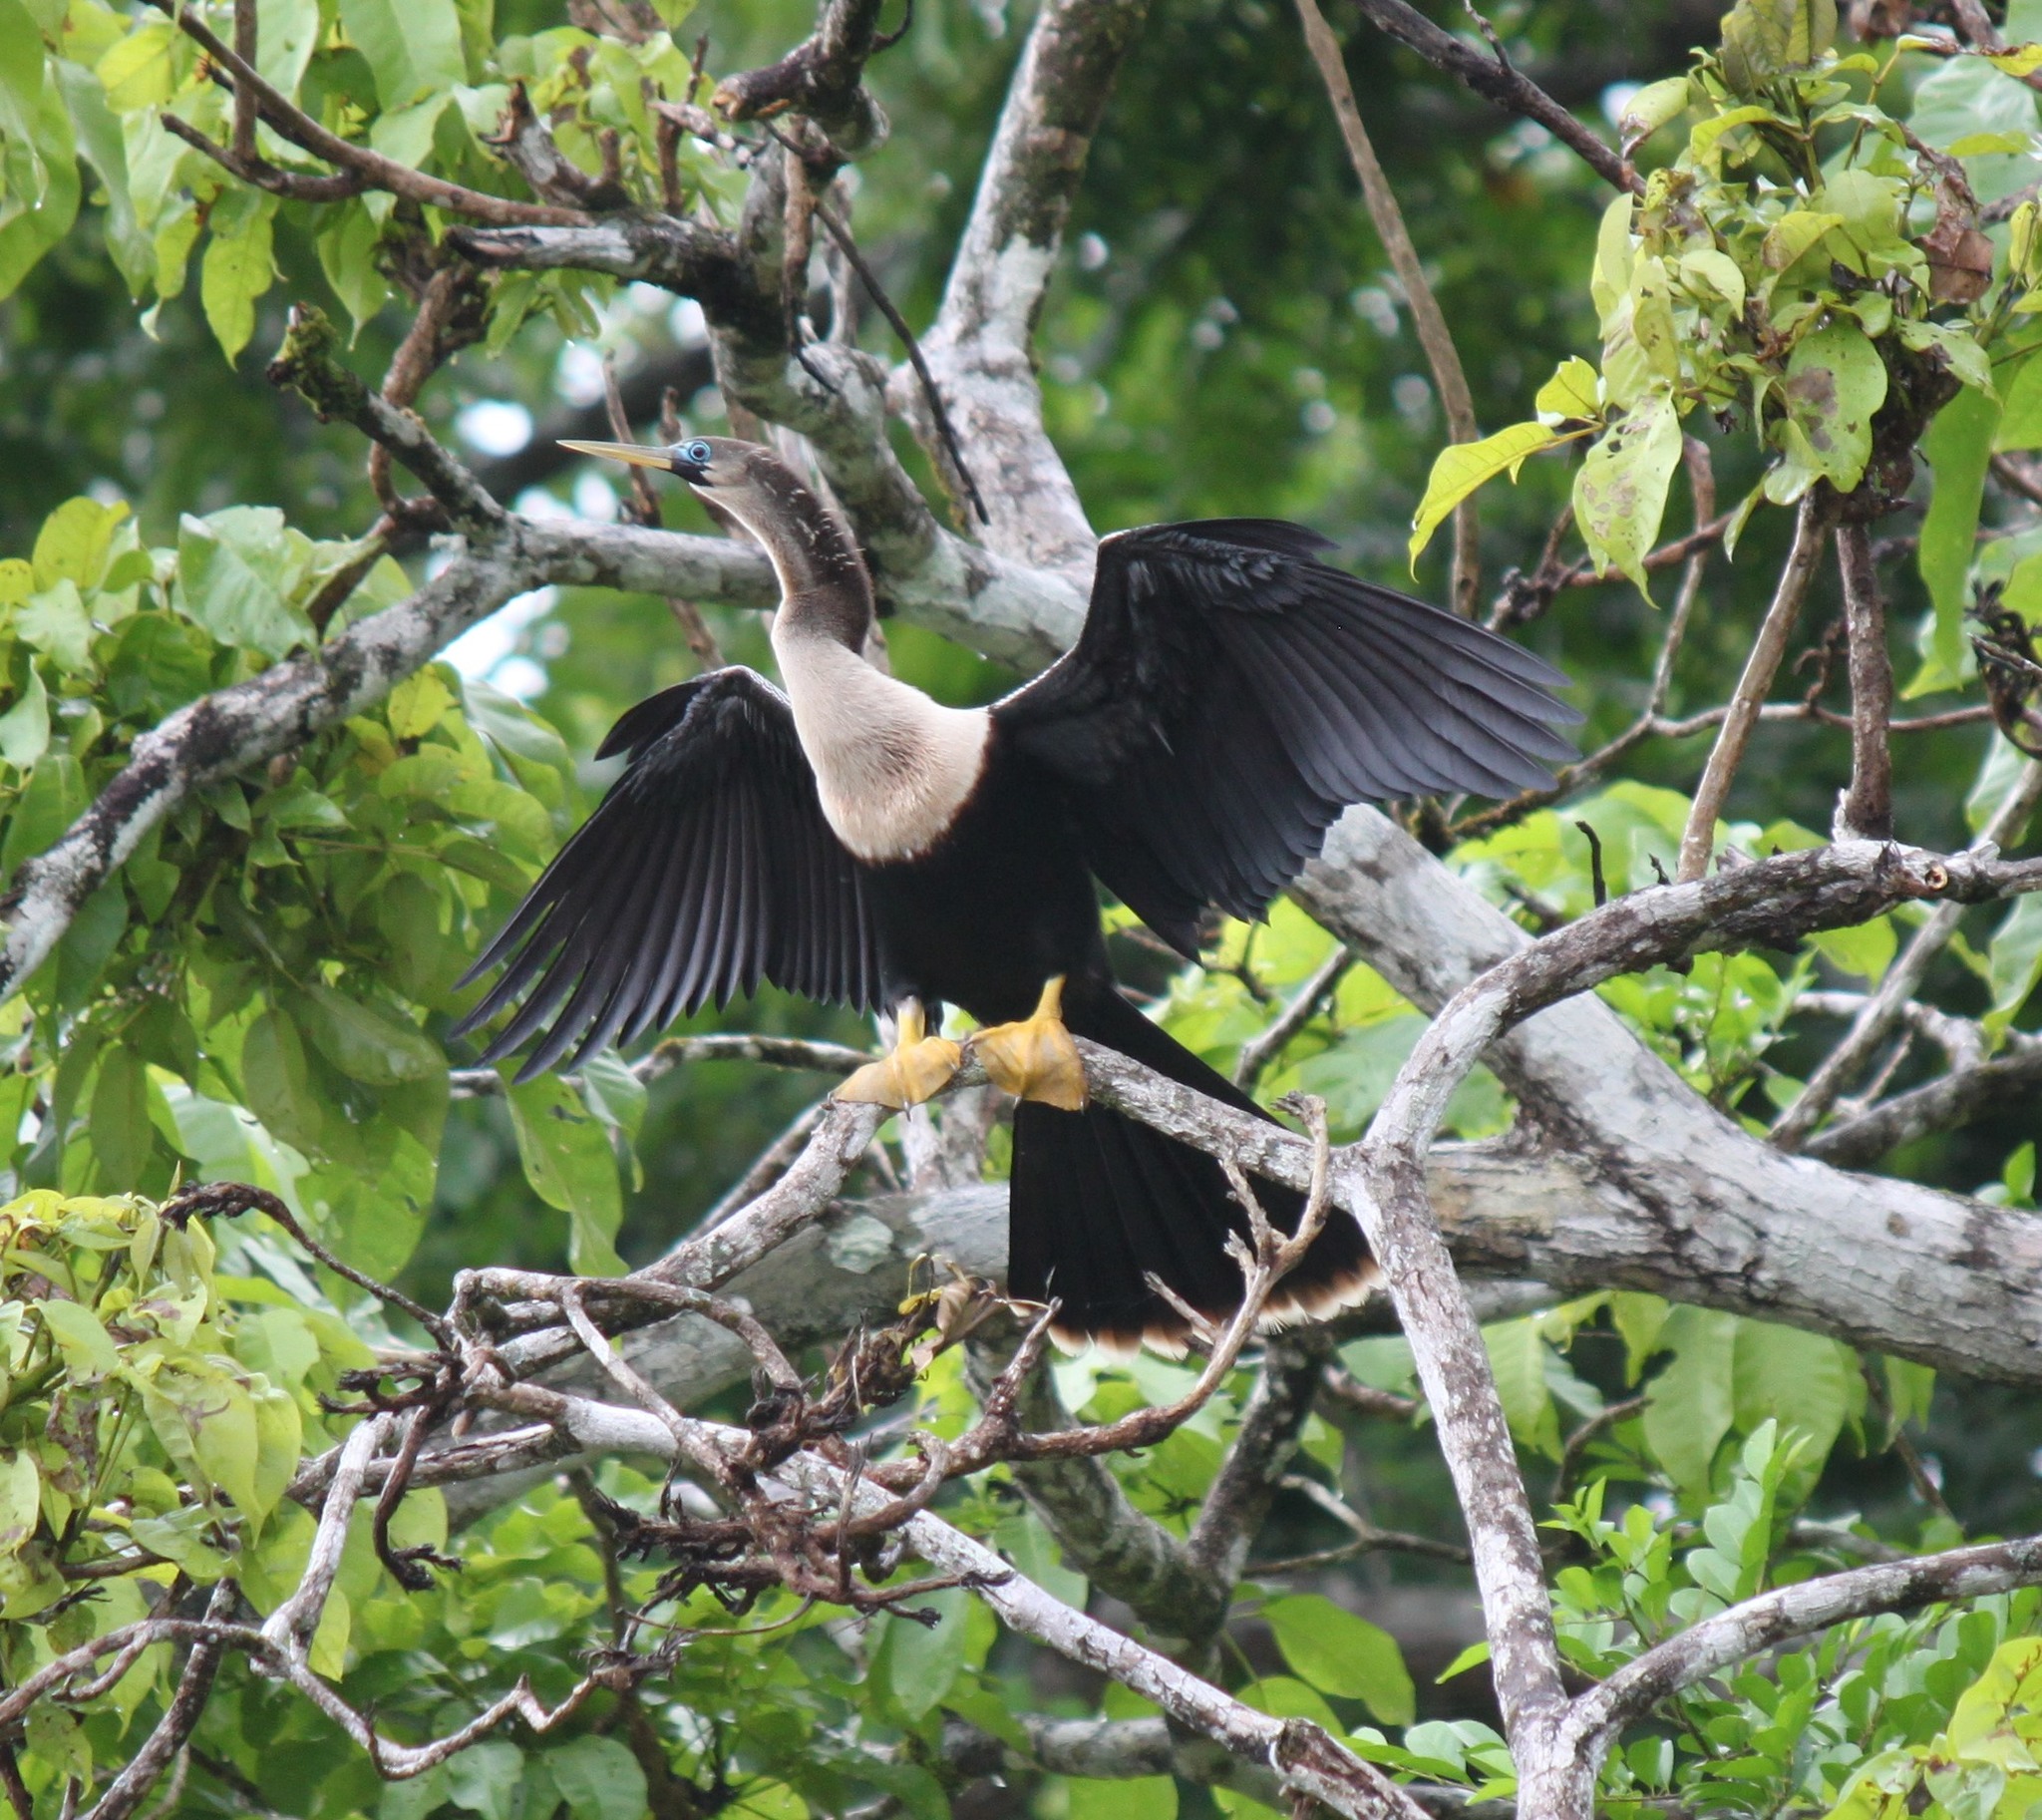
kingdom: Animalia
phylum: Chordata
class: Aves
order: Suliformes
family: Anhingidae
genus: Anhinga
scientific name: Anhinga anhinga
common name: Anhinga
